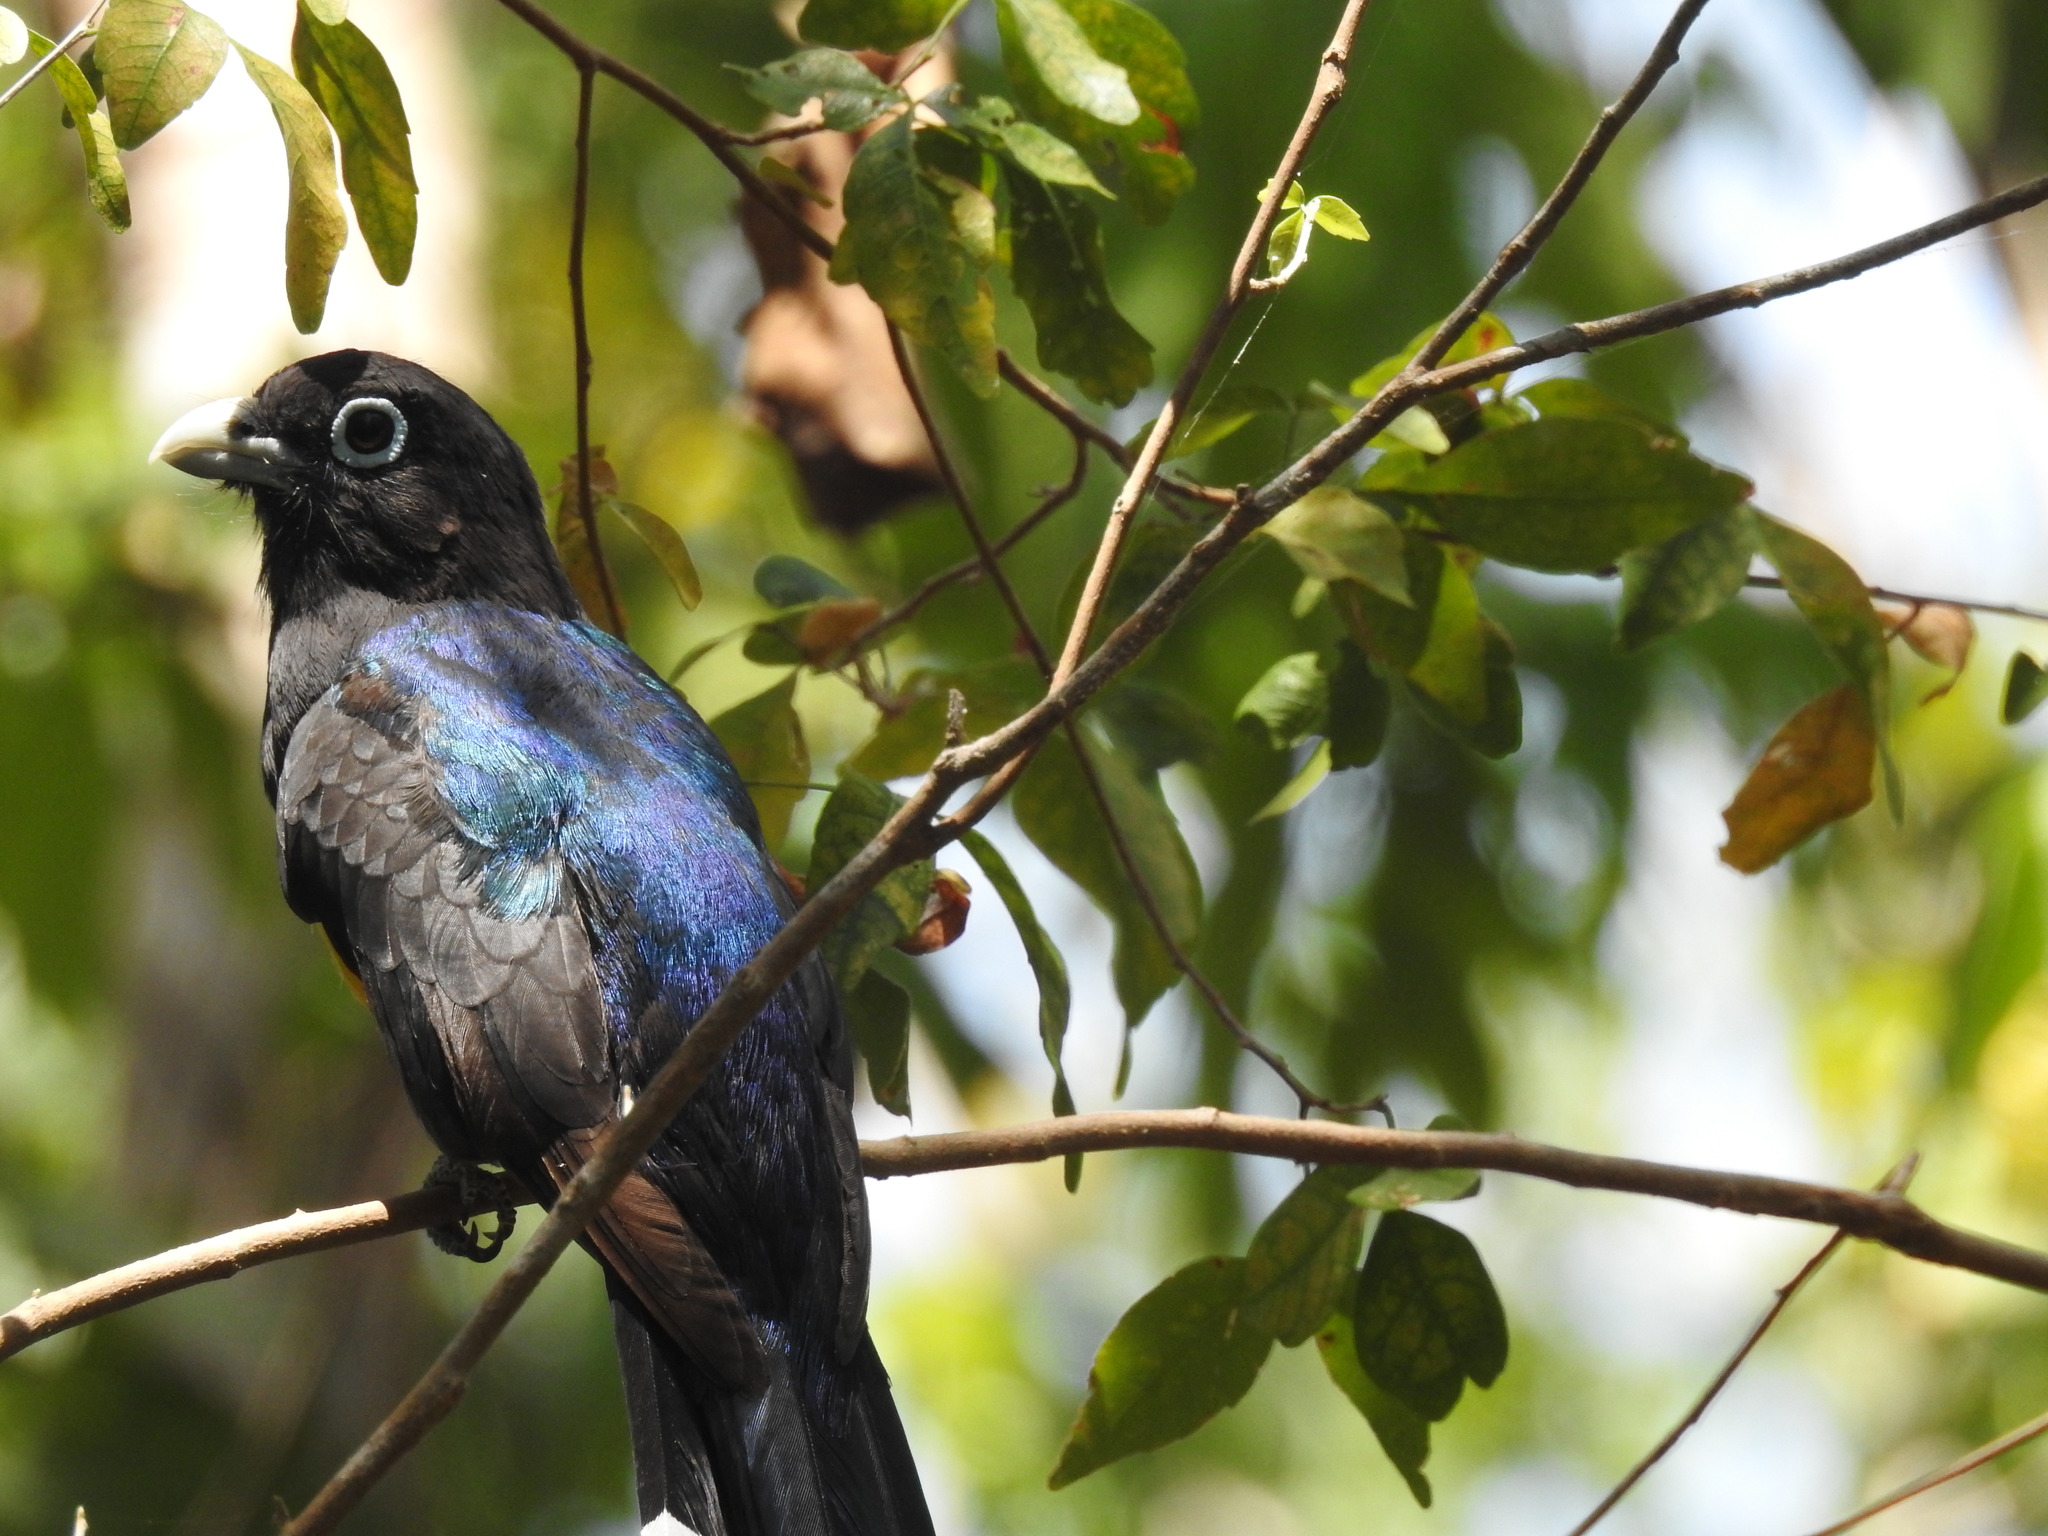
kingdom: Animalia
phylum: Chordata
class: Aves
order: Trogoniformes
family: Trogonidae
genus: Trogon
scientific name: Trogon melanocephalus
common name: Black-headed trogon
